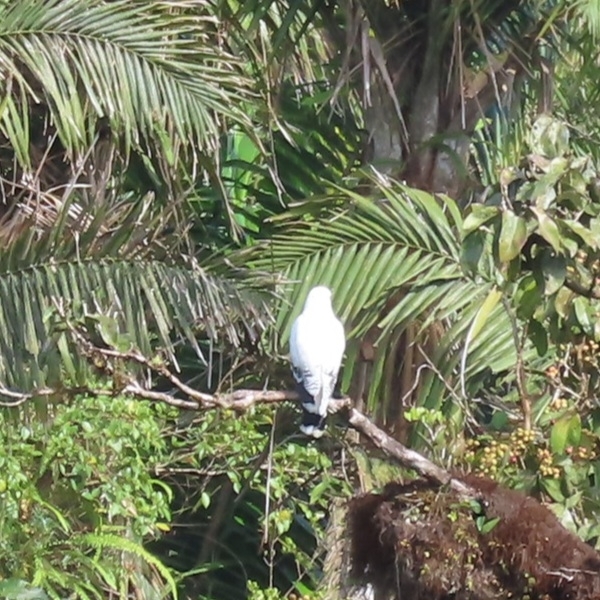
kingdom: Animalia
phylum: Chordata
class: Aves
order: Accipitriformes
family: Accipitridae
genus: Leucopternis
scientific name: Leucopternis albicollis
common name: White hawk
